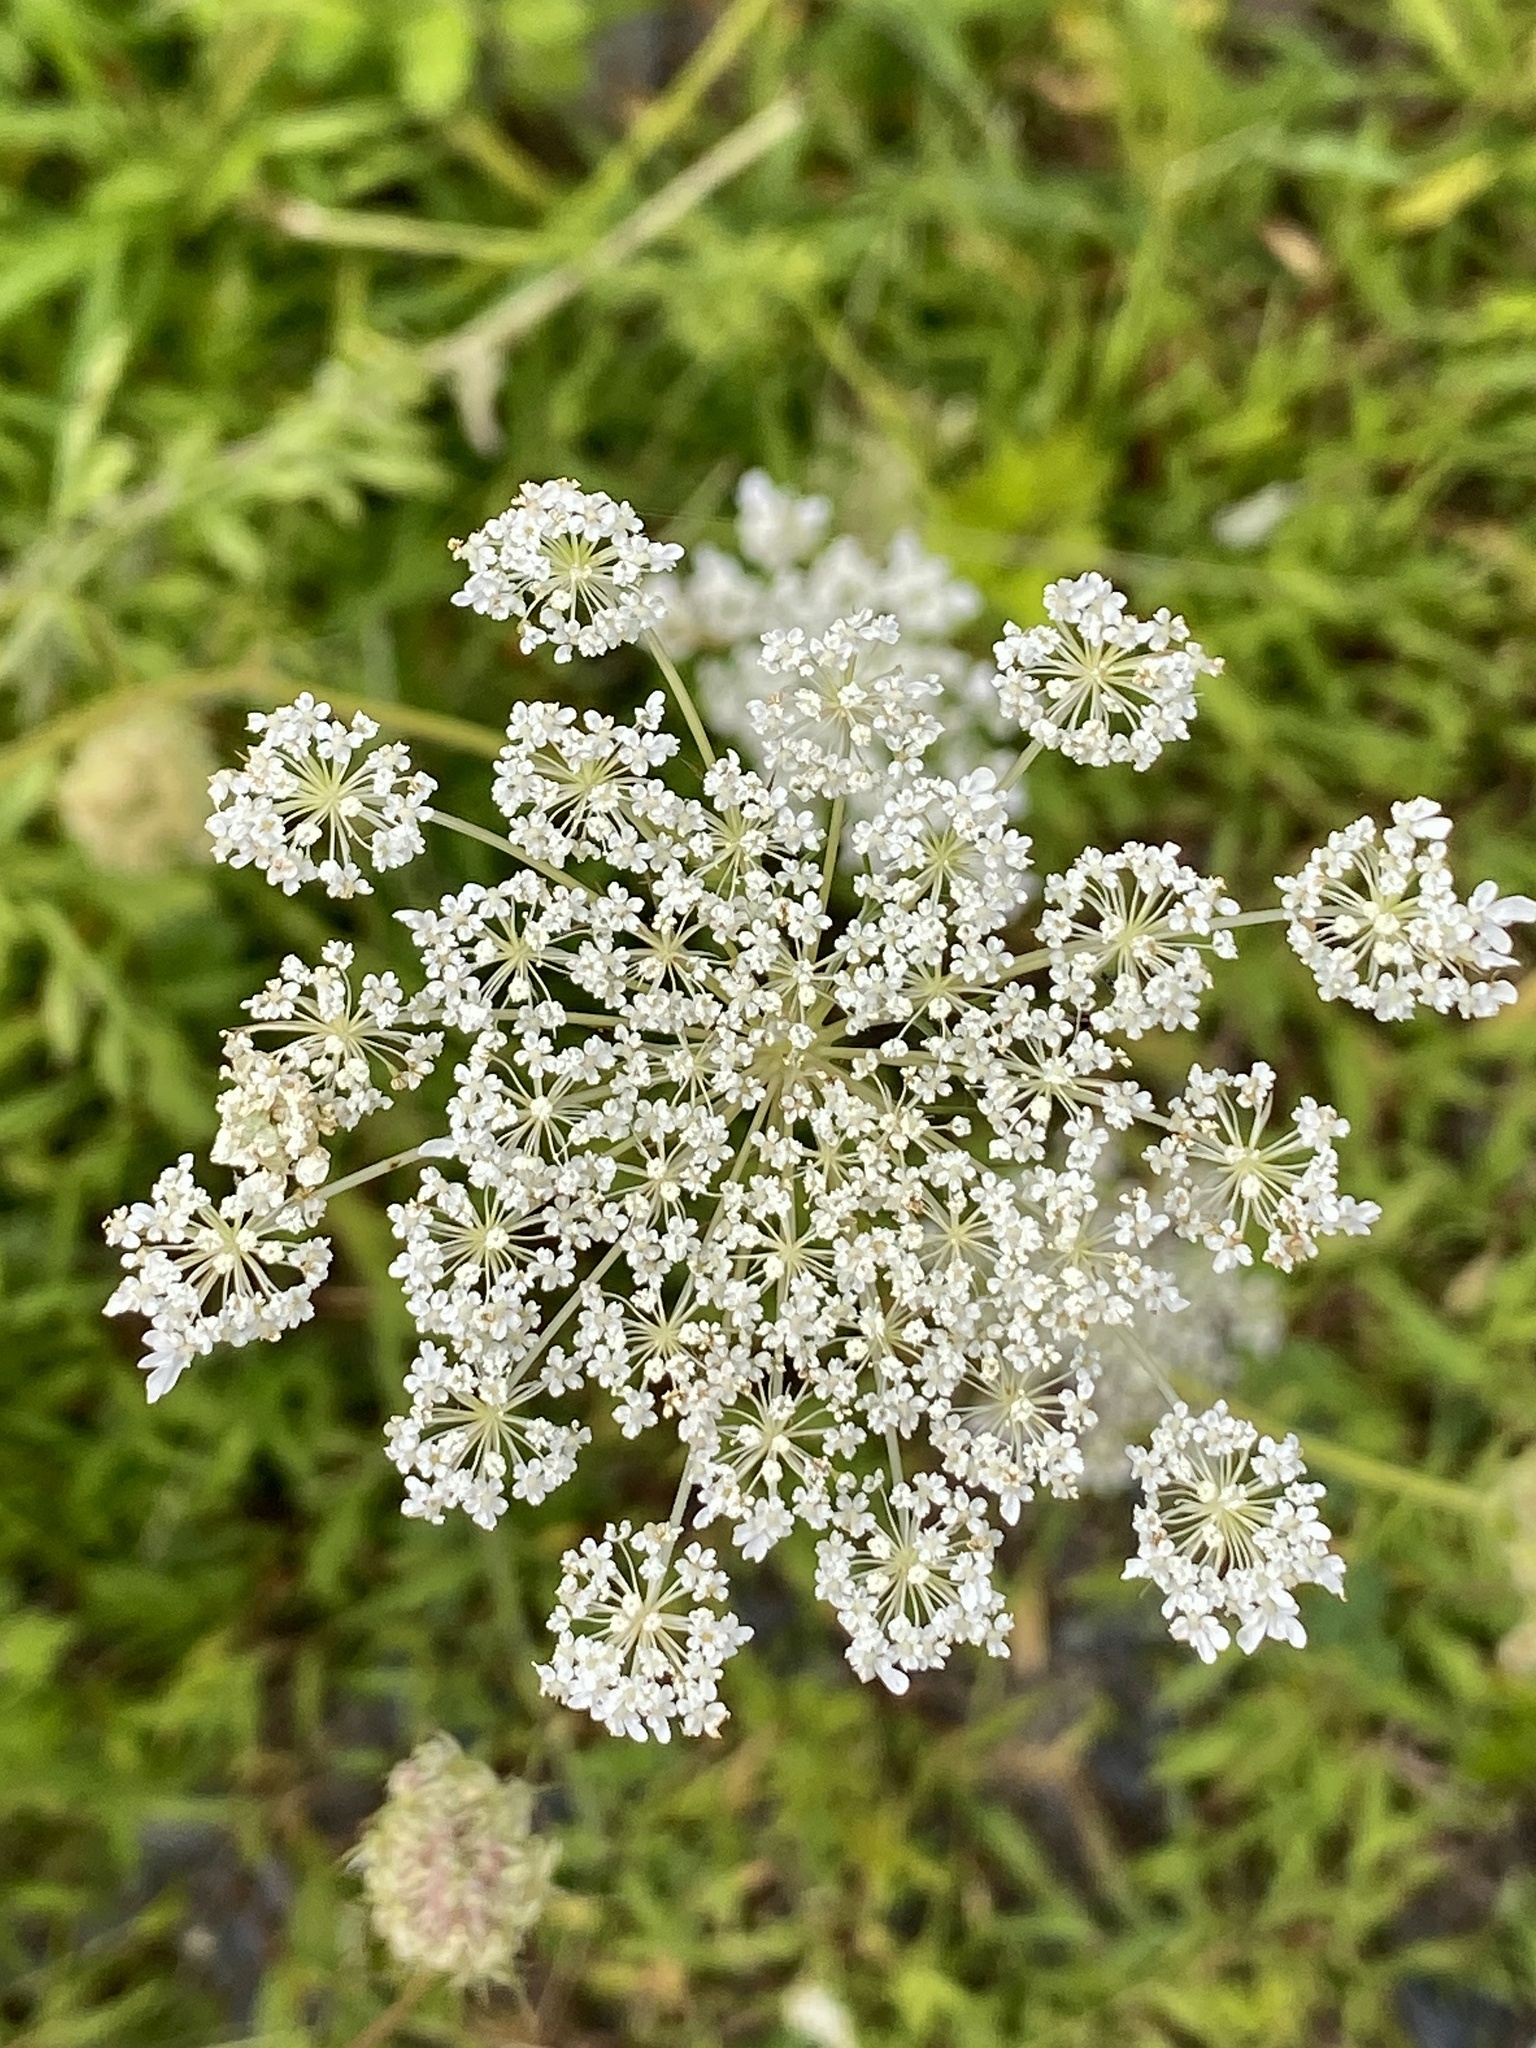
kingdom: Plantae
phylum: Tracheophyta
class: Magnoliopsida
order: Apiales
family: Apiaceae
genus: Daucus
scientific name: Daucus carota
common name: Wild carrot
